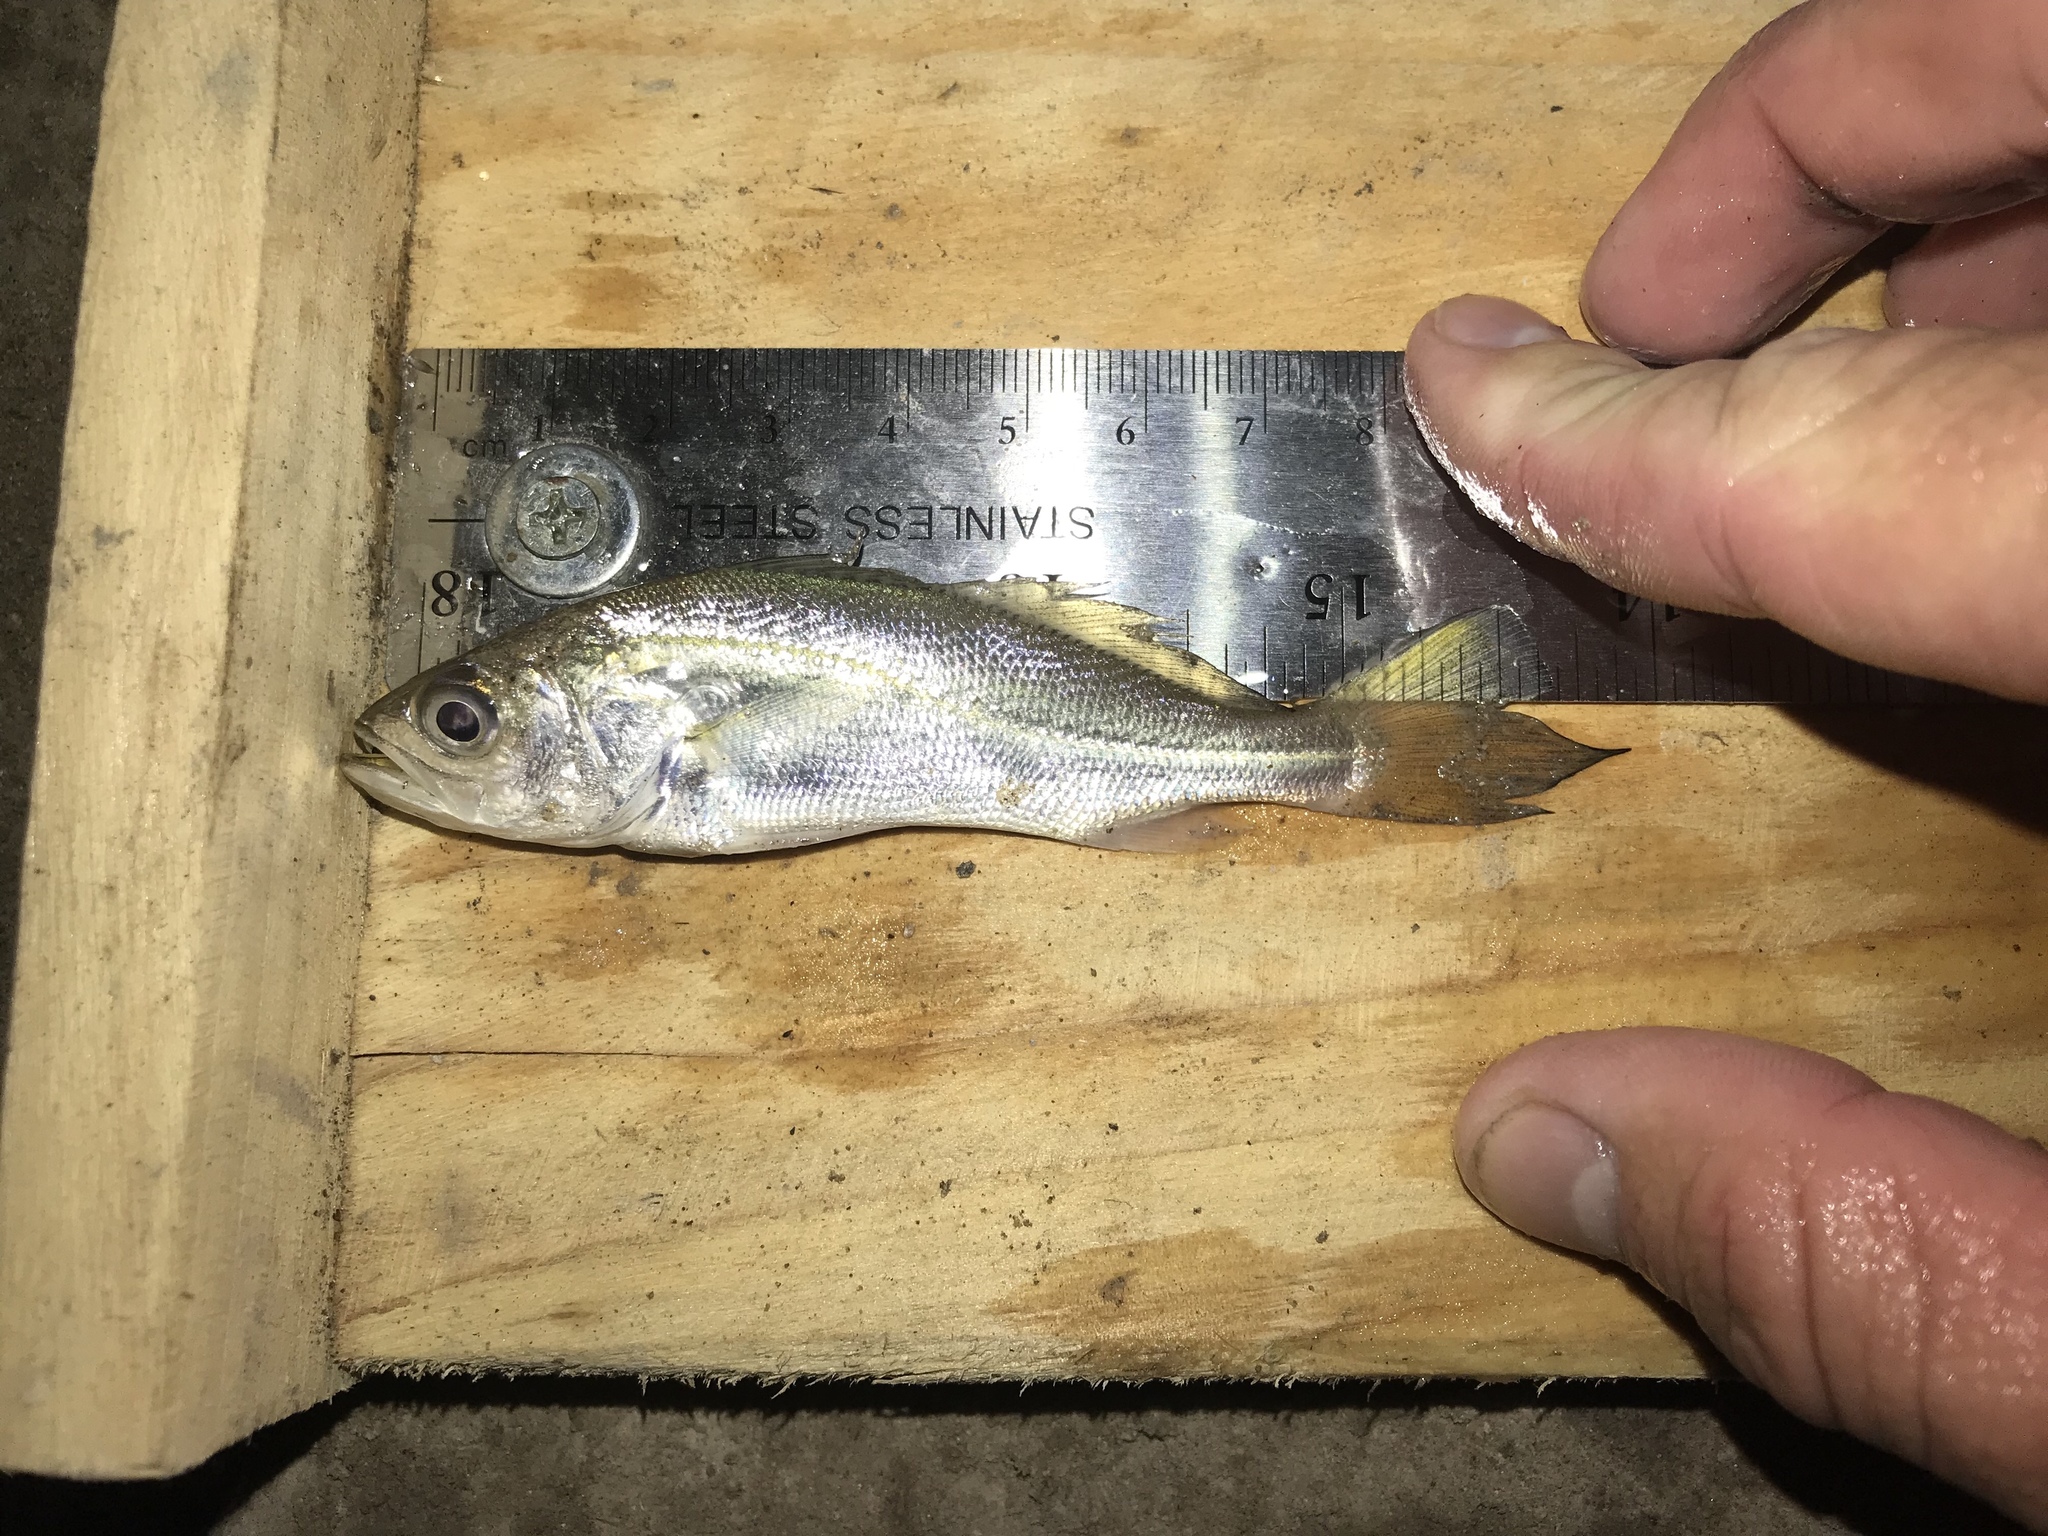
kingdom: Animalia
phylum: Chordata
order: Perciformes
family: Sciaenidae
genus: Cynoscion
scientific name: Cynoscion arenarius
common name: Sand seatrout
